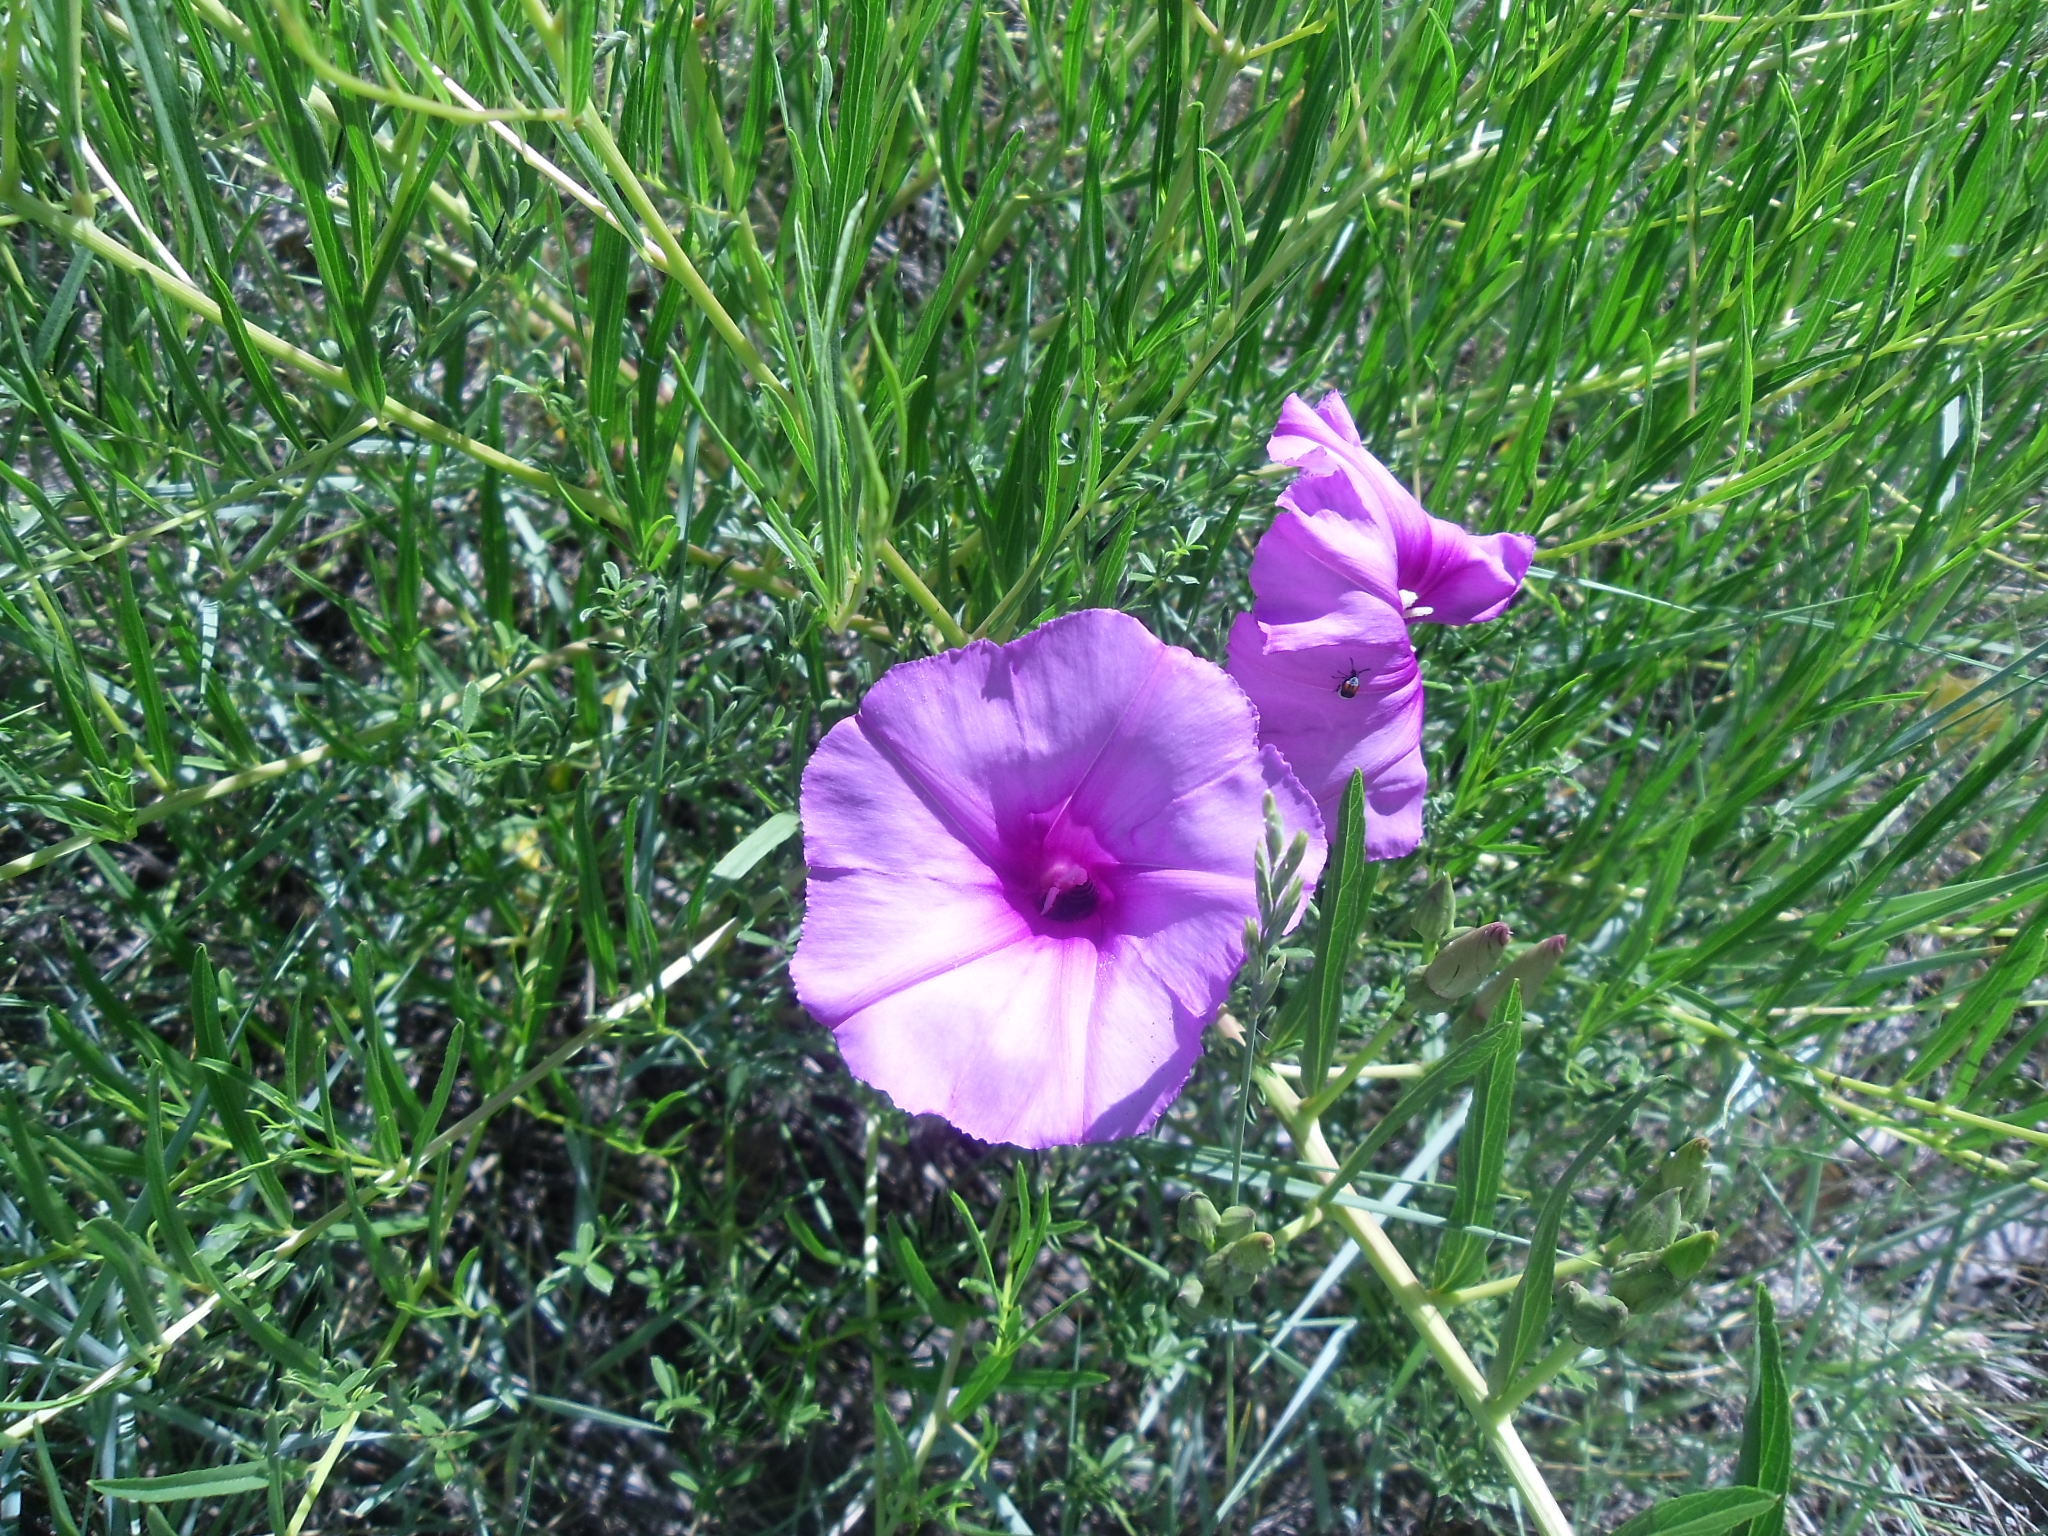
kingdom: Plantae
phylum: Tracheophyta
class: Magnoliopsida
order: Solanales
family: Convolvulaceae
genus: Ipomoea
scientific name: Ipomoea leptophylla
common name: Bush moonflower
